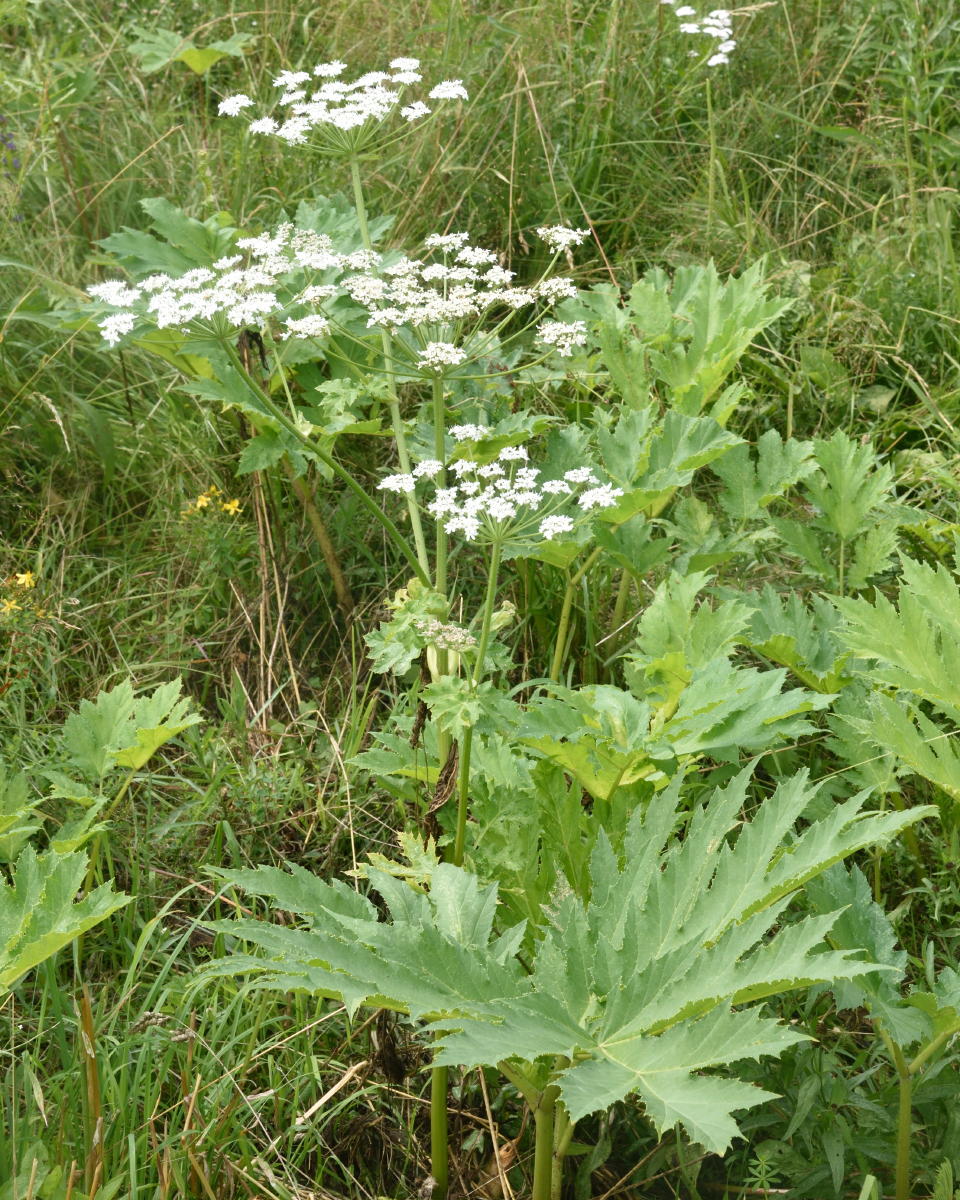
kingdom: Plantae
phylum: Tracheophyta
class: Magnoliopsida
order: Apiales
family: Apiaceae
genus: Heracleum
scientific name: Heracleum sosnowskyi
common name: Sosnowsky's hogweed
